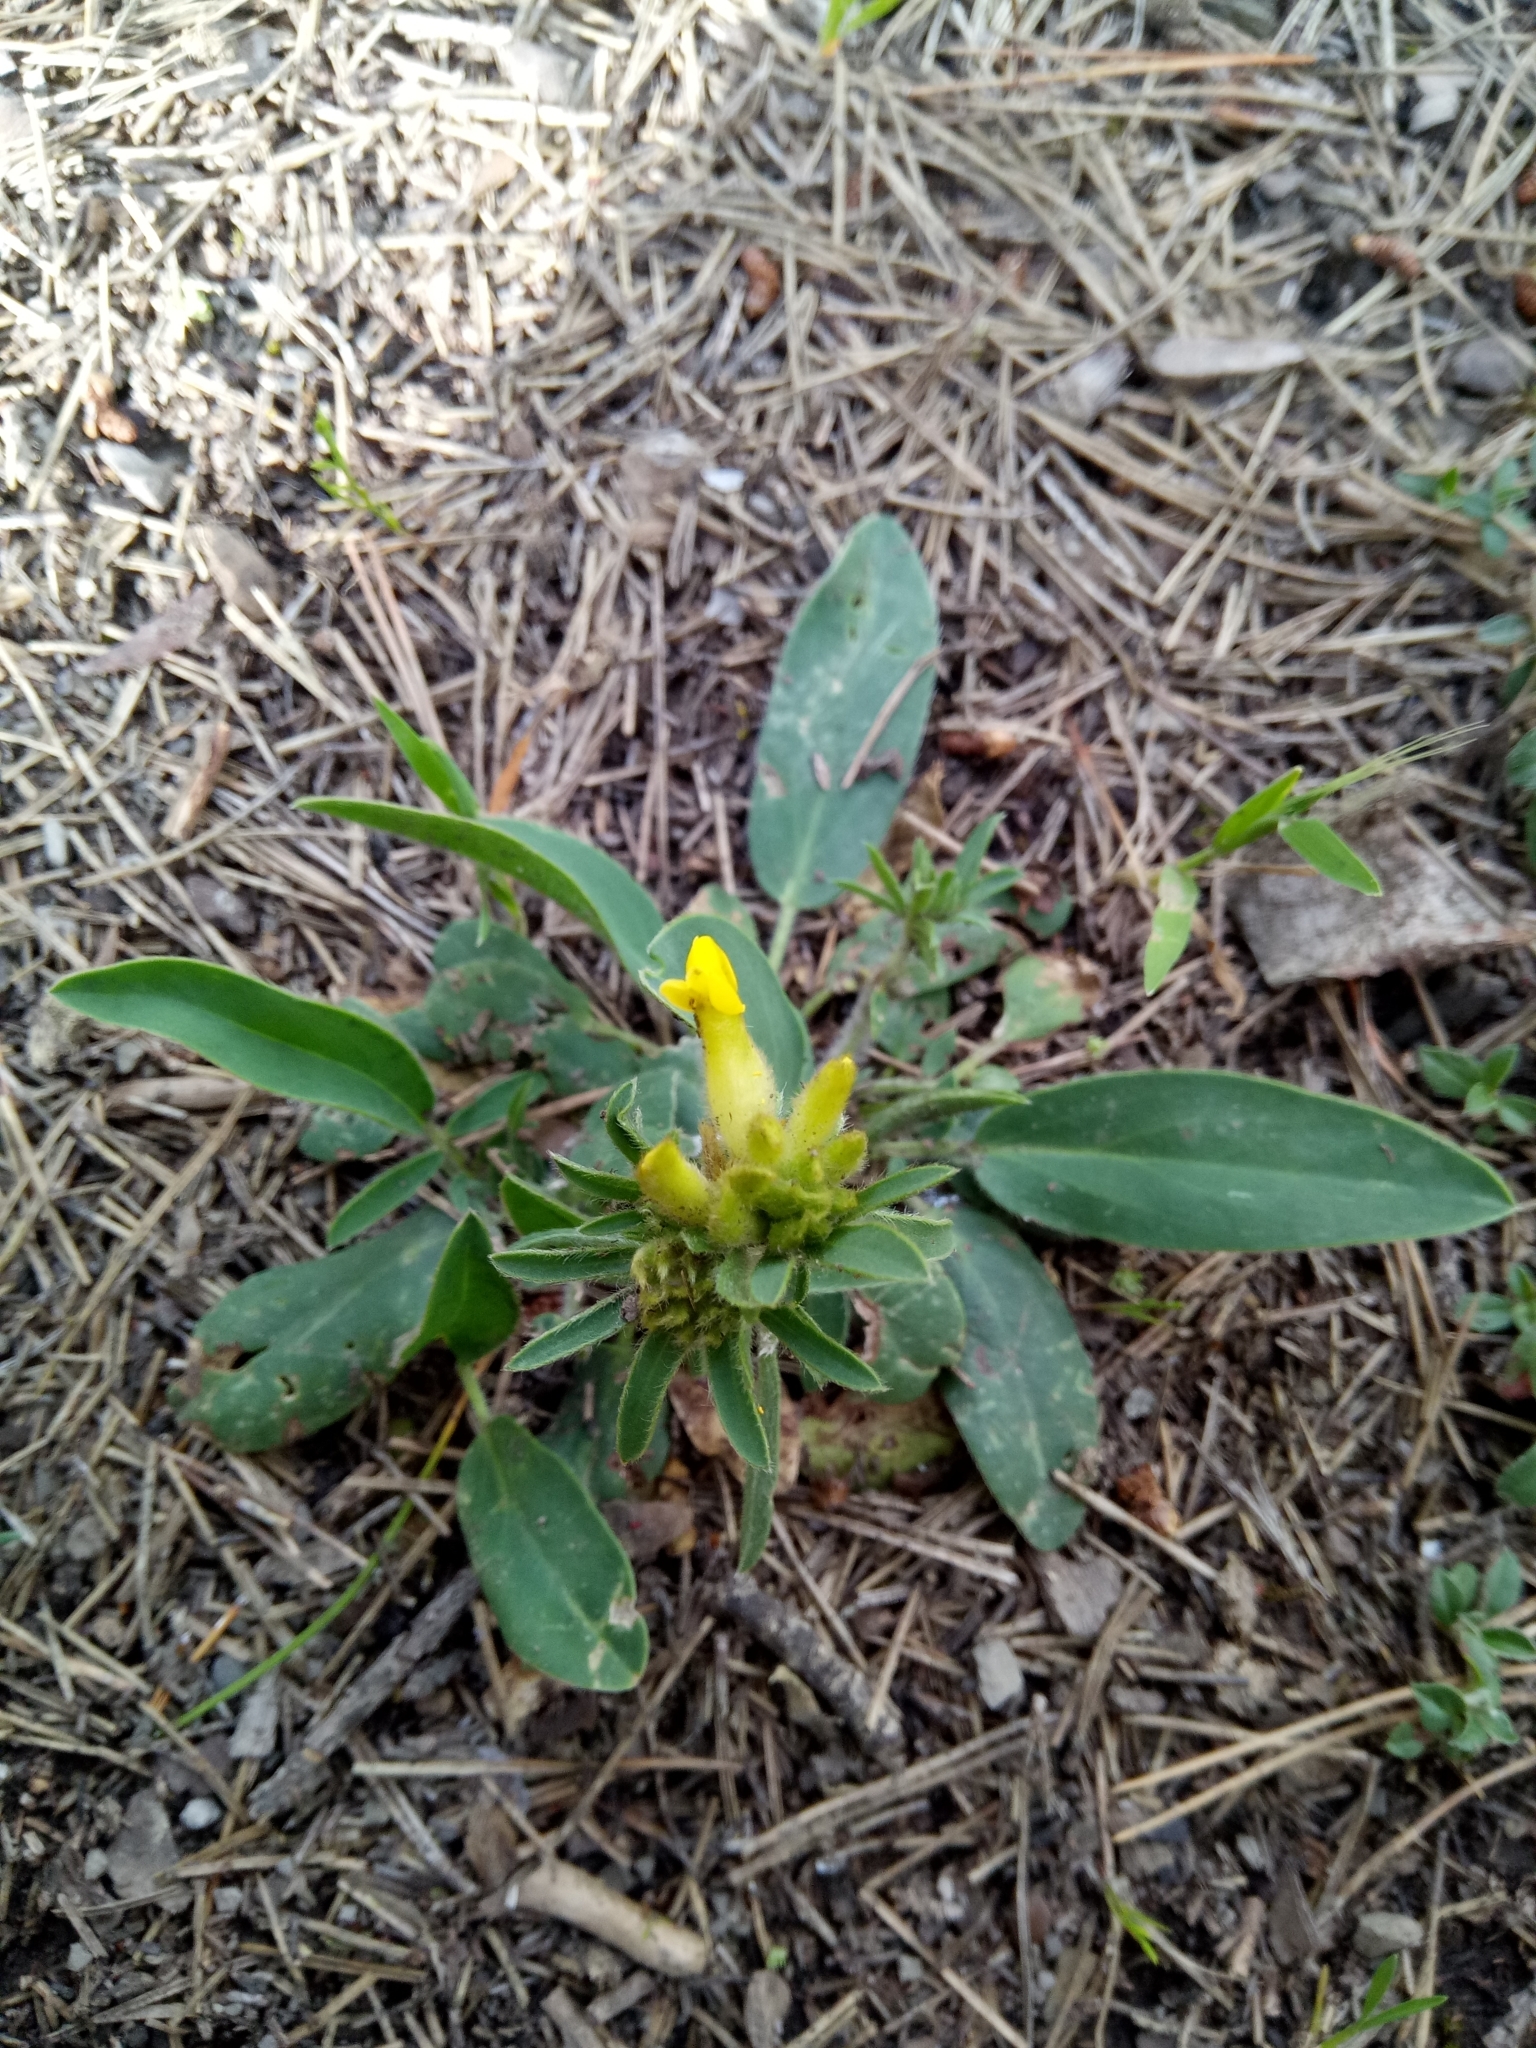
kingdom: Plantae
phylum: Tracheophyta
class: Magnoliopsida
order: Fabales
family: Fabaceae
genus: Anthyllis
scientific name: Anthyllis vulneraria
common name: Kidney vetch
